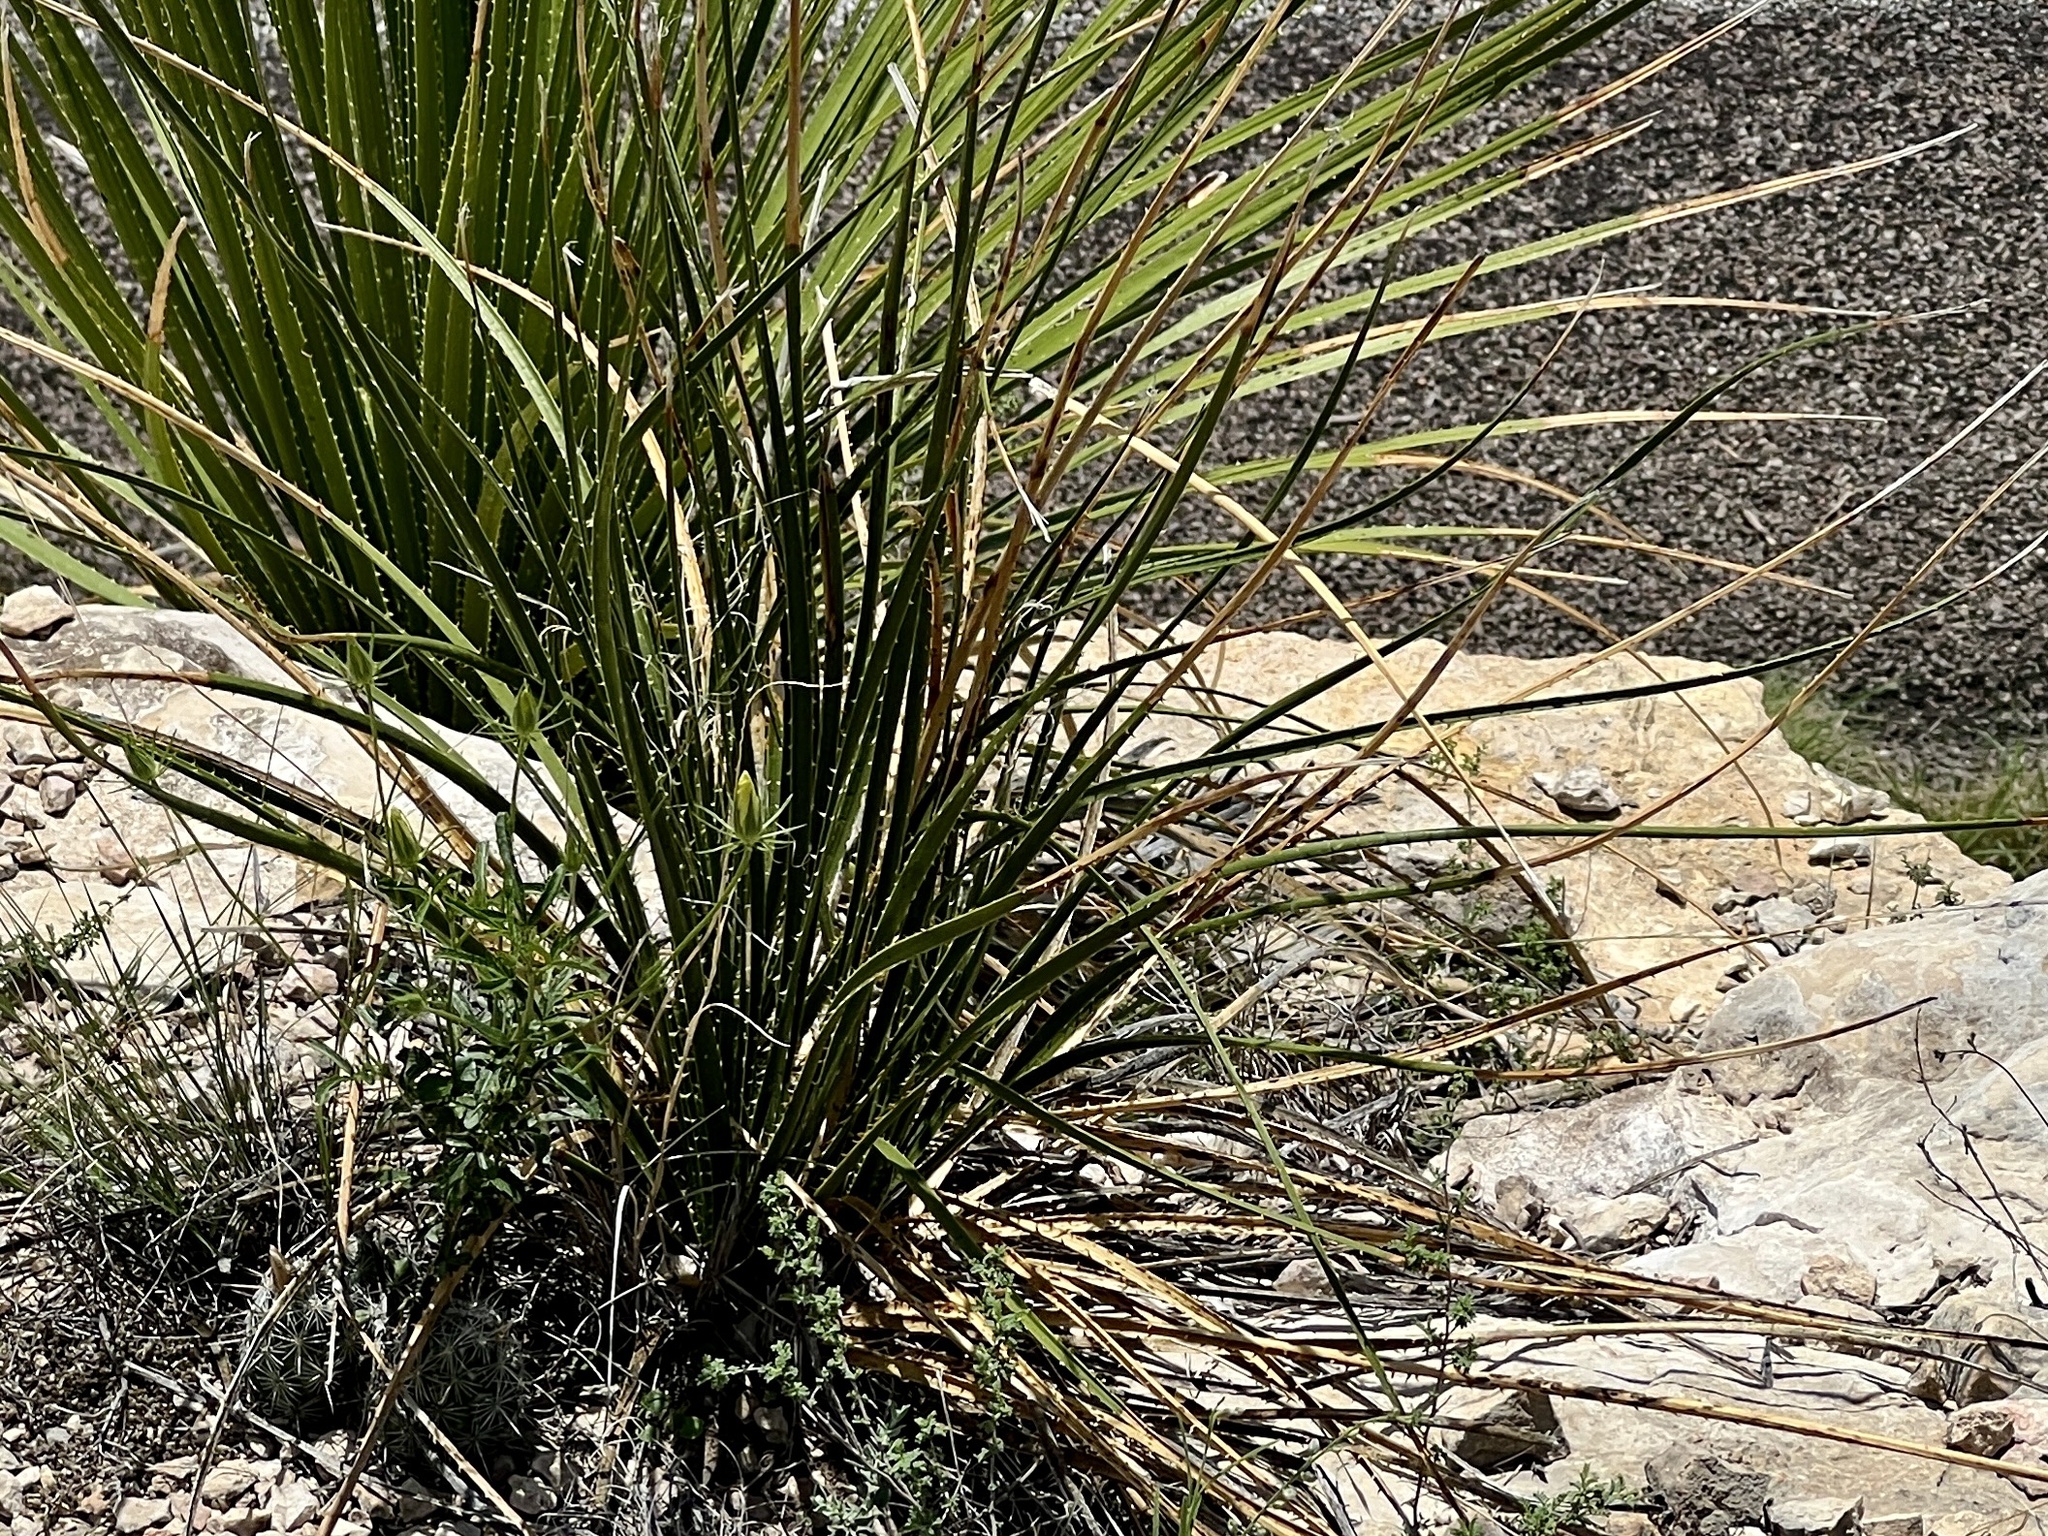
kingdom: Plantae
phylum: Tracheophyta
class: Liliopsida
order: Asparagales
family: Asparagaceae
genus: Dasylirion
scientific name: Dasylirion leiophyllum
